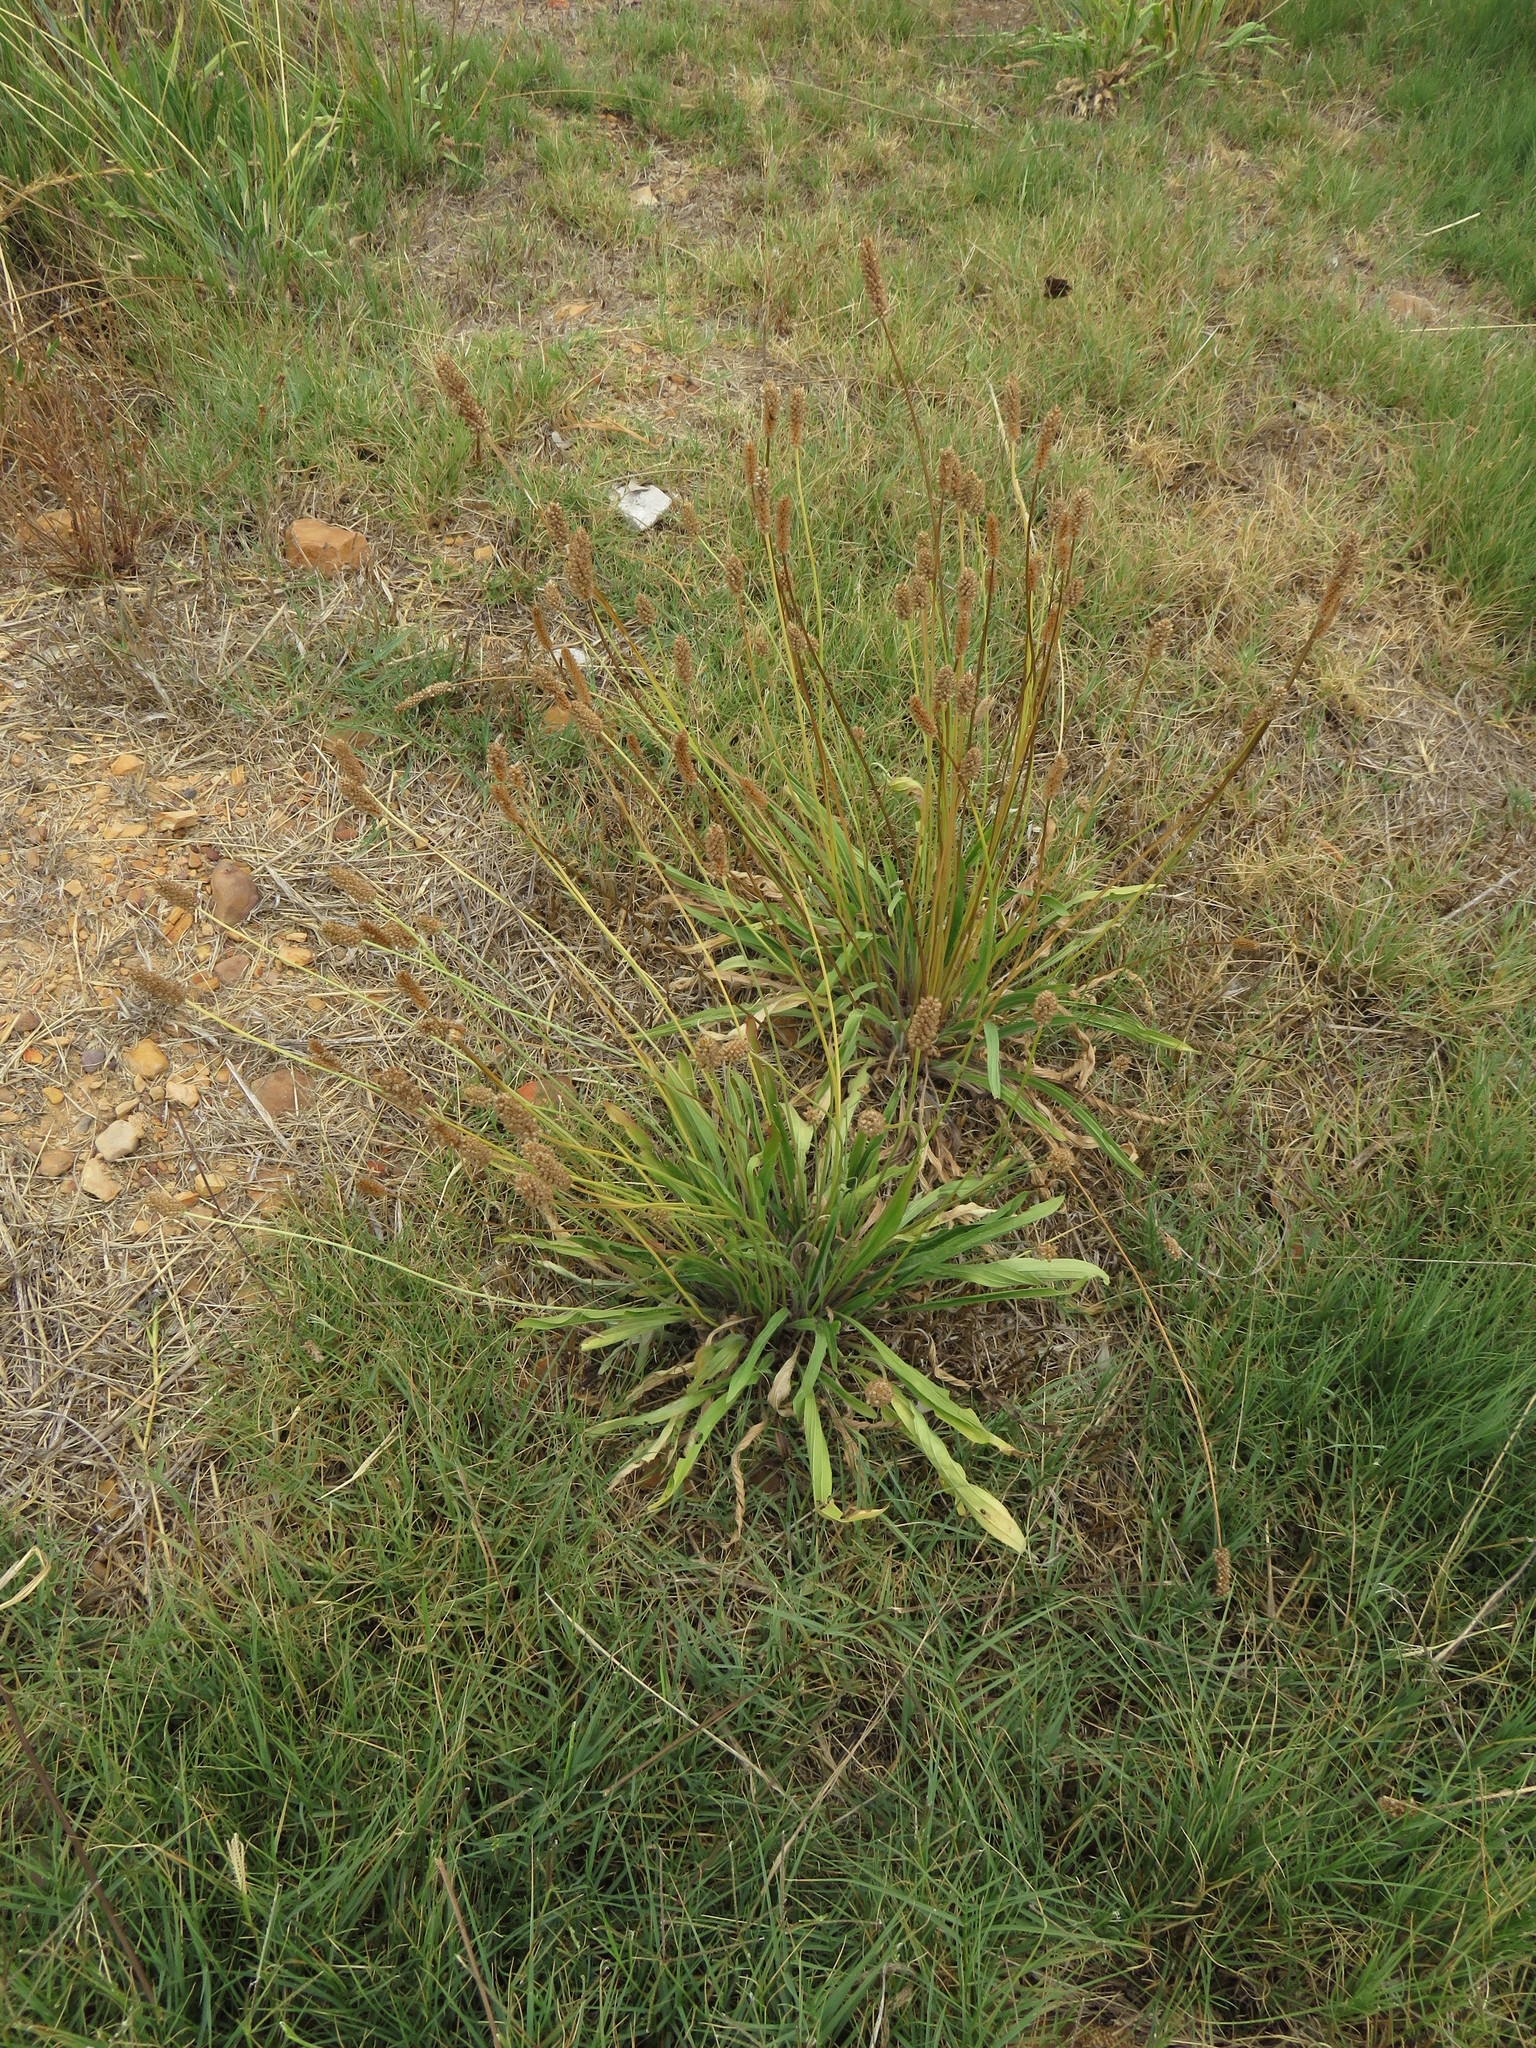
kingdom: Plantae
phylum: Tracheophyta
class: Magnoliopsida
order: Lamiales
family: Plantaginaceae
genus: Plantago
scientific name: Plantago lanceolata
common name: Ribwort plantain
